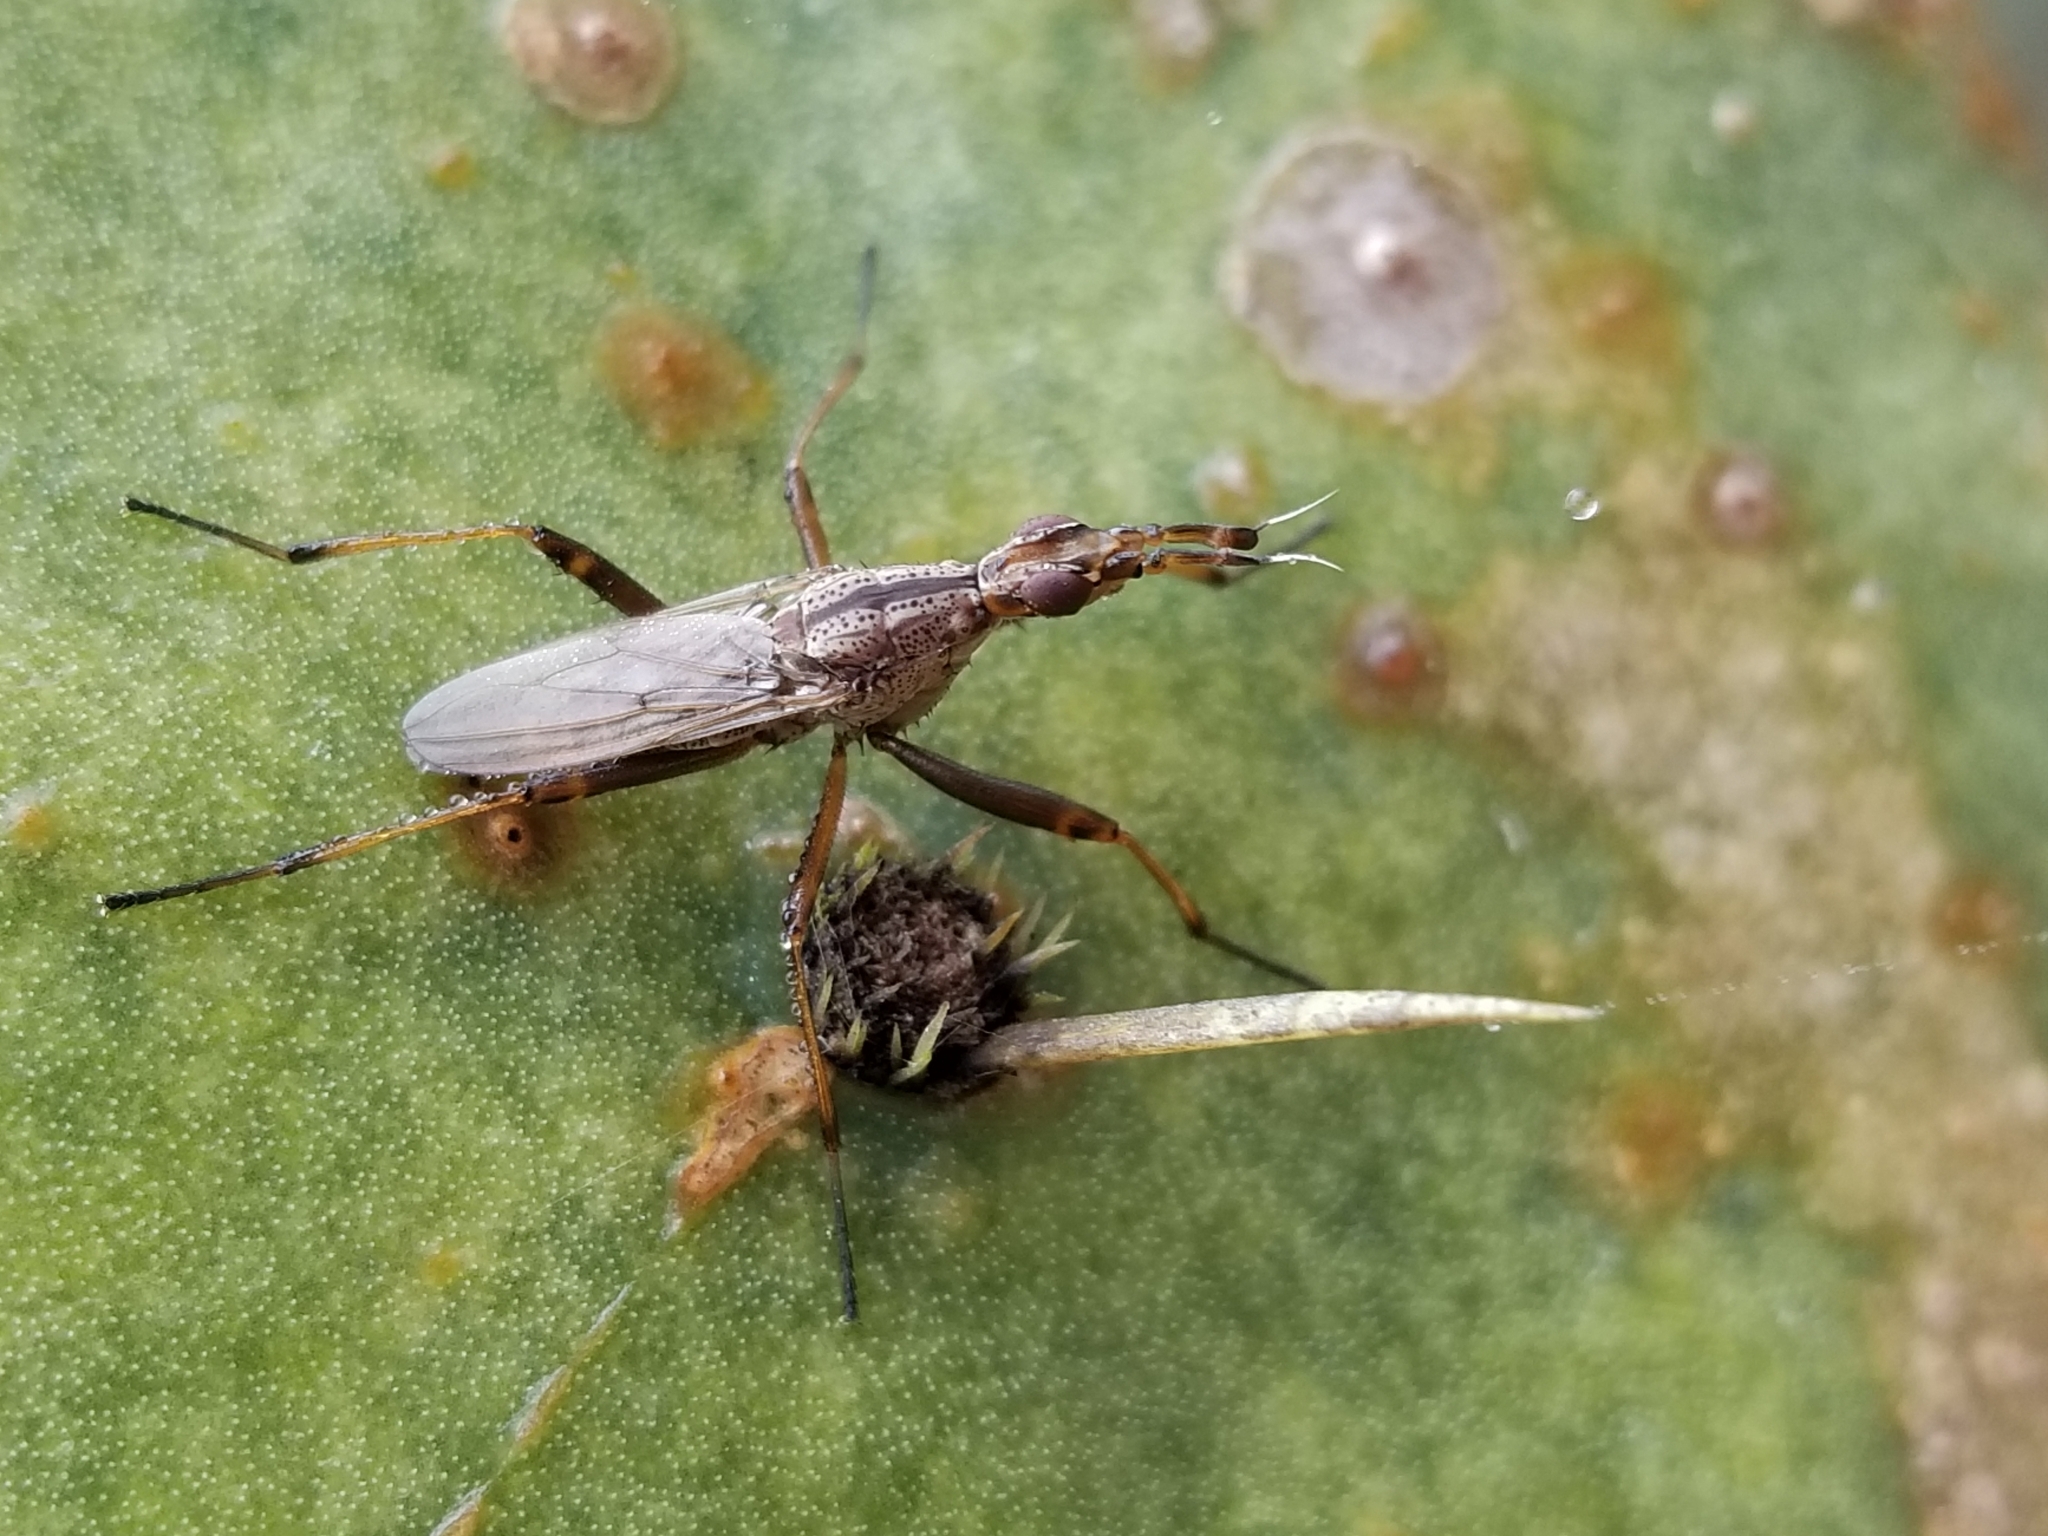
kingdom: Animalia
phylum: Arthropoda
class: Insecta
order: Diptera
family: Neriidae
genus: Odontoloxozus
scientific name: Odontoloxozus longicornis
